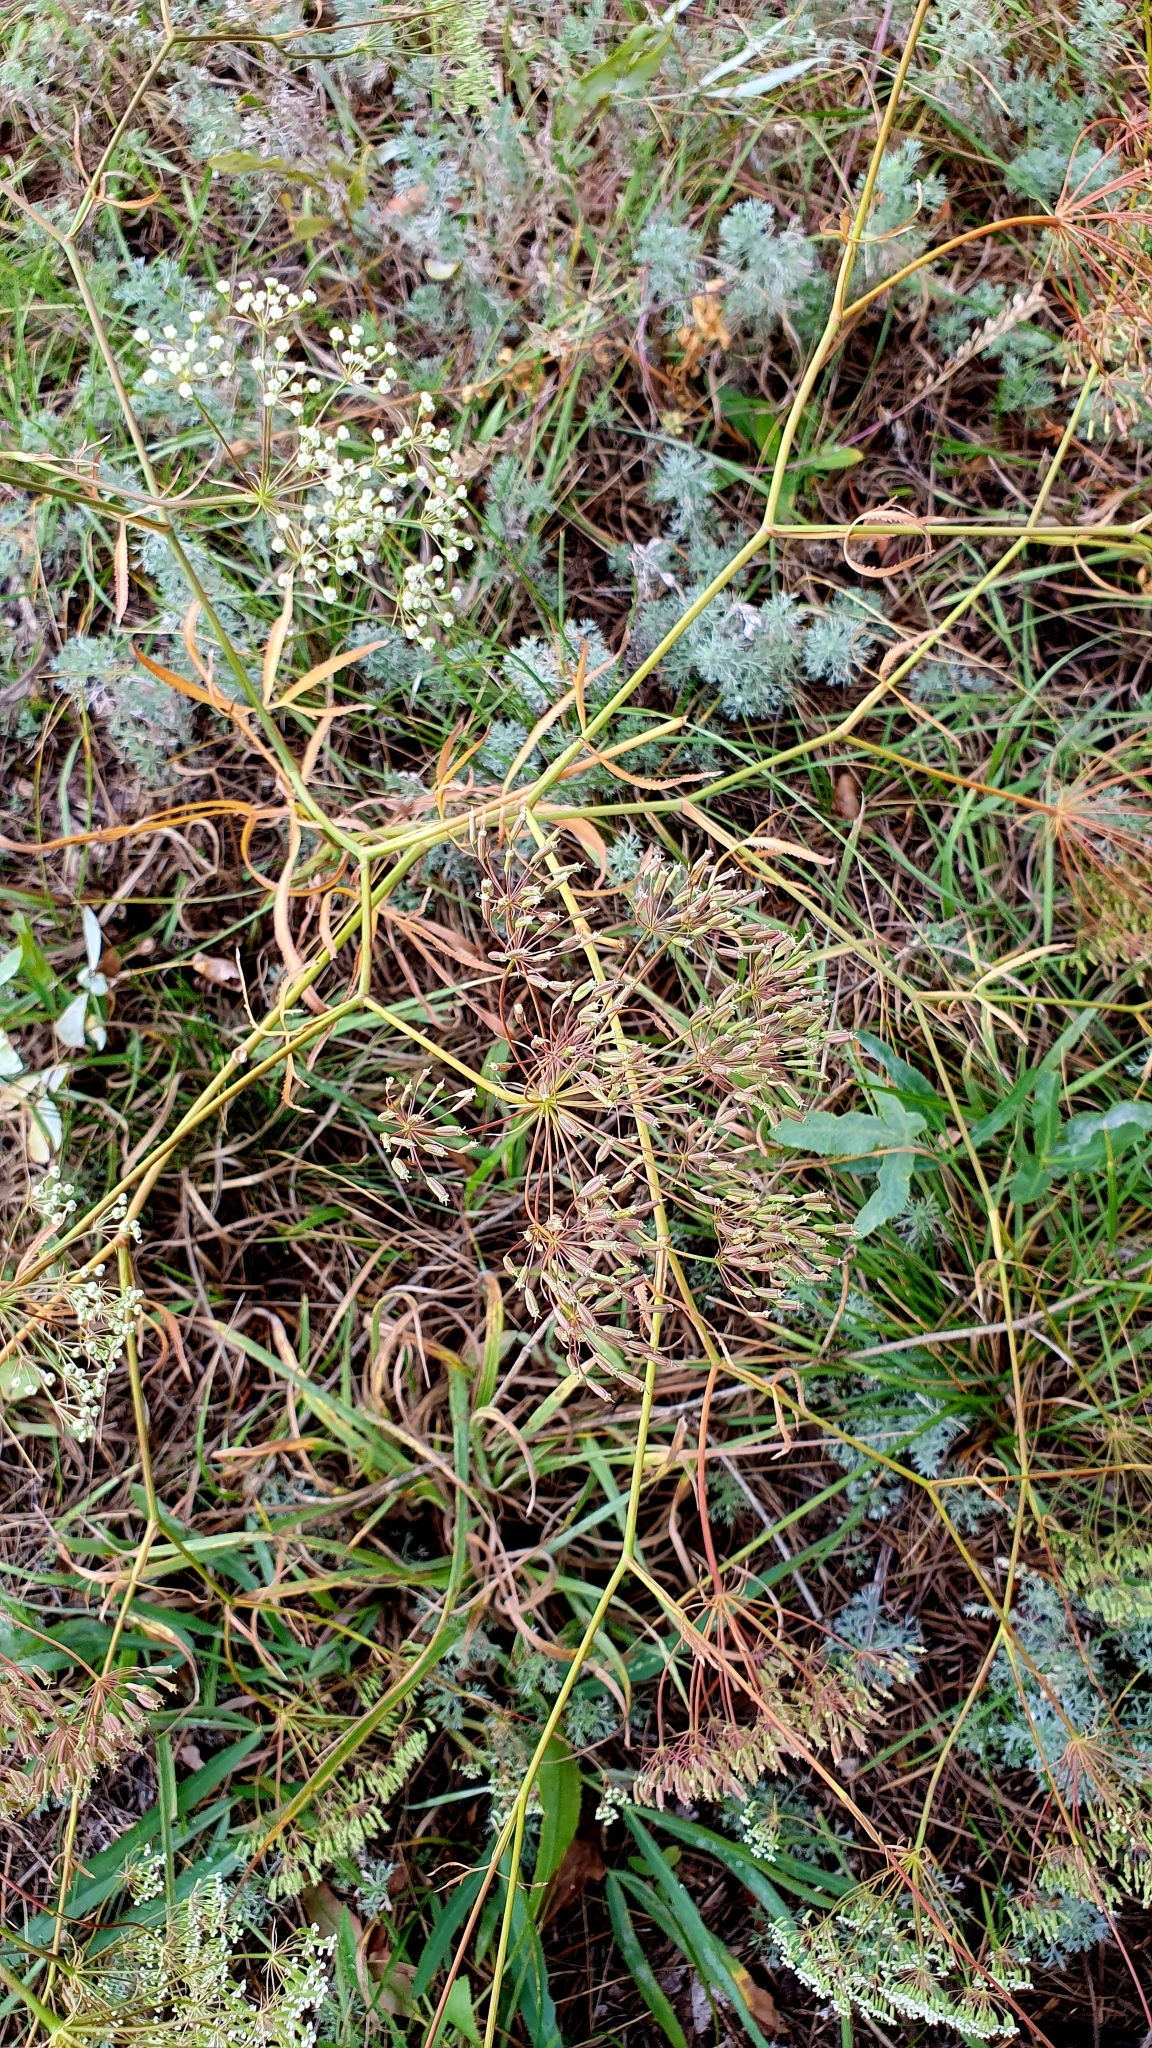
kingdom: Plantae
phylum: Tracheophyta
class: Magnoliopsida
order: Apiales
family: Apiaceae
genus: Falcaria
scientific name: Falcaria vulgaris
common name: Longleaf
